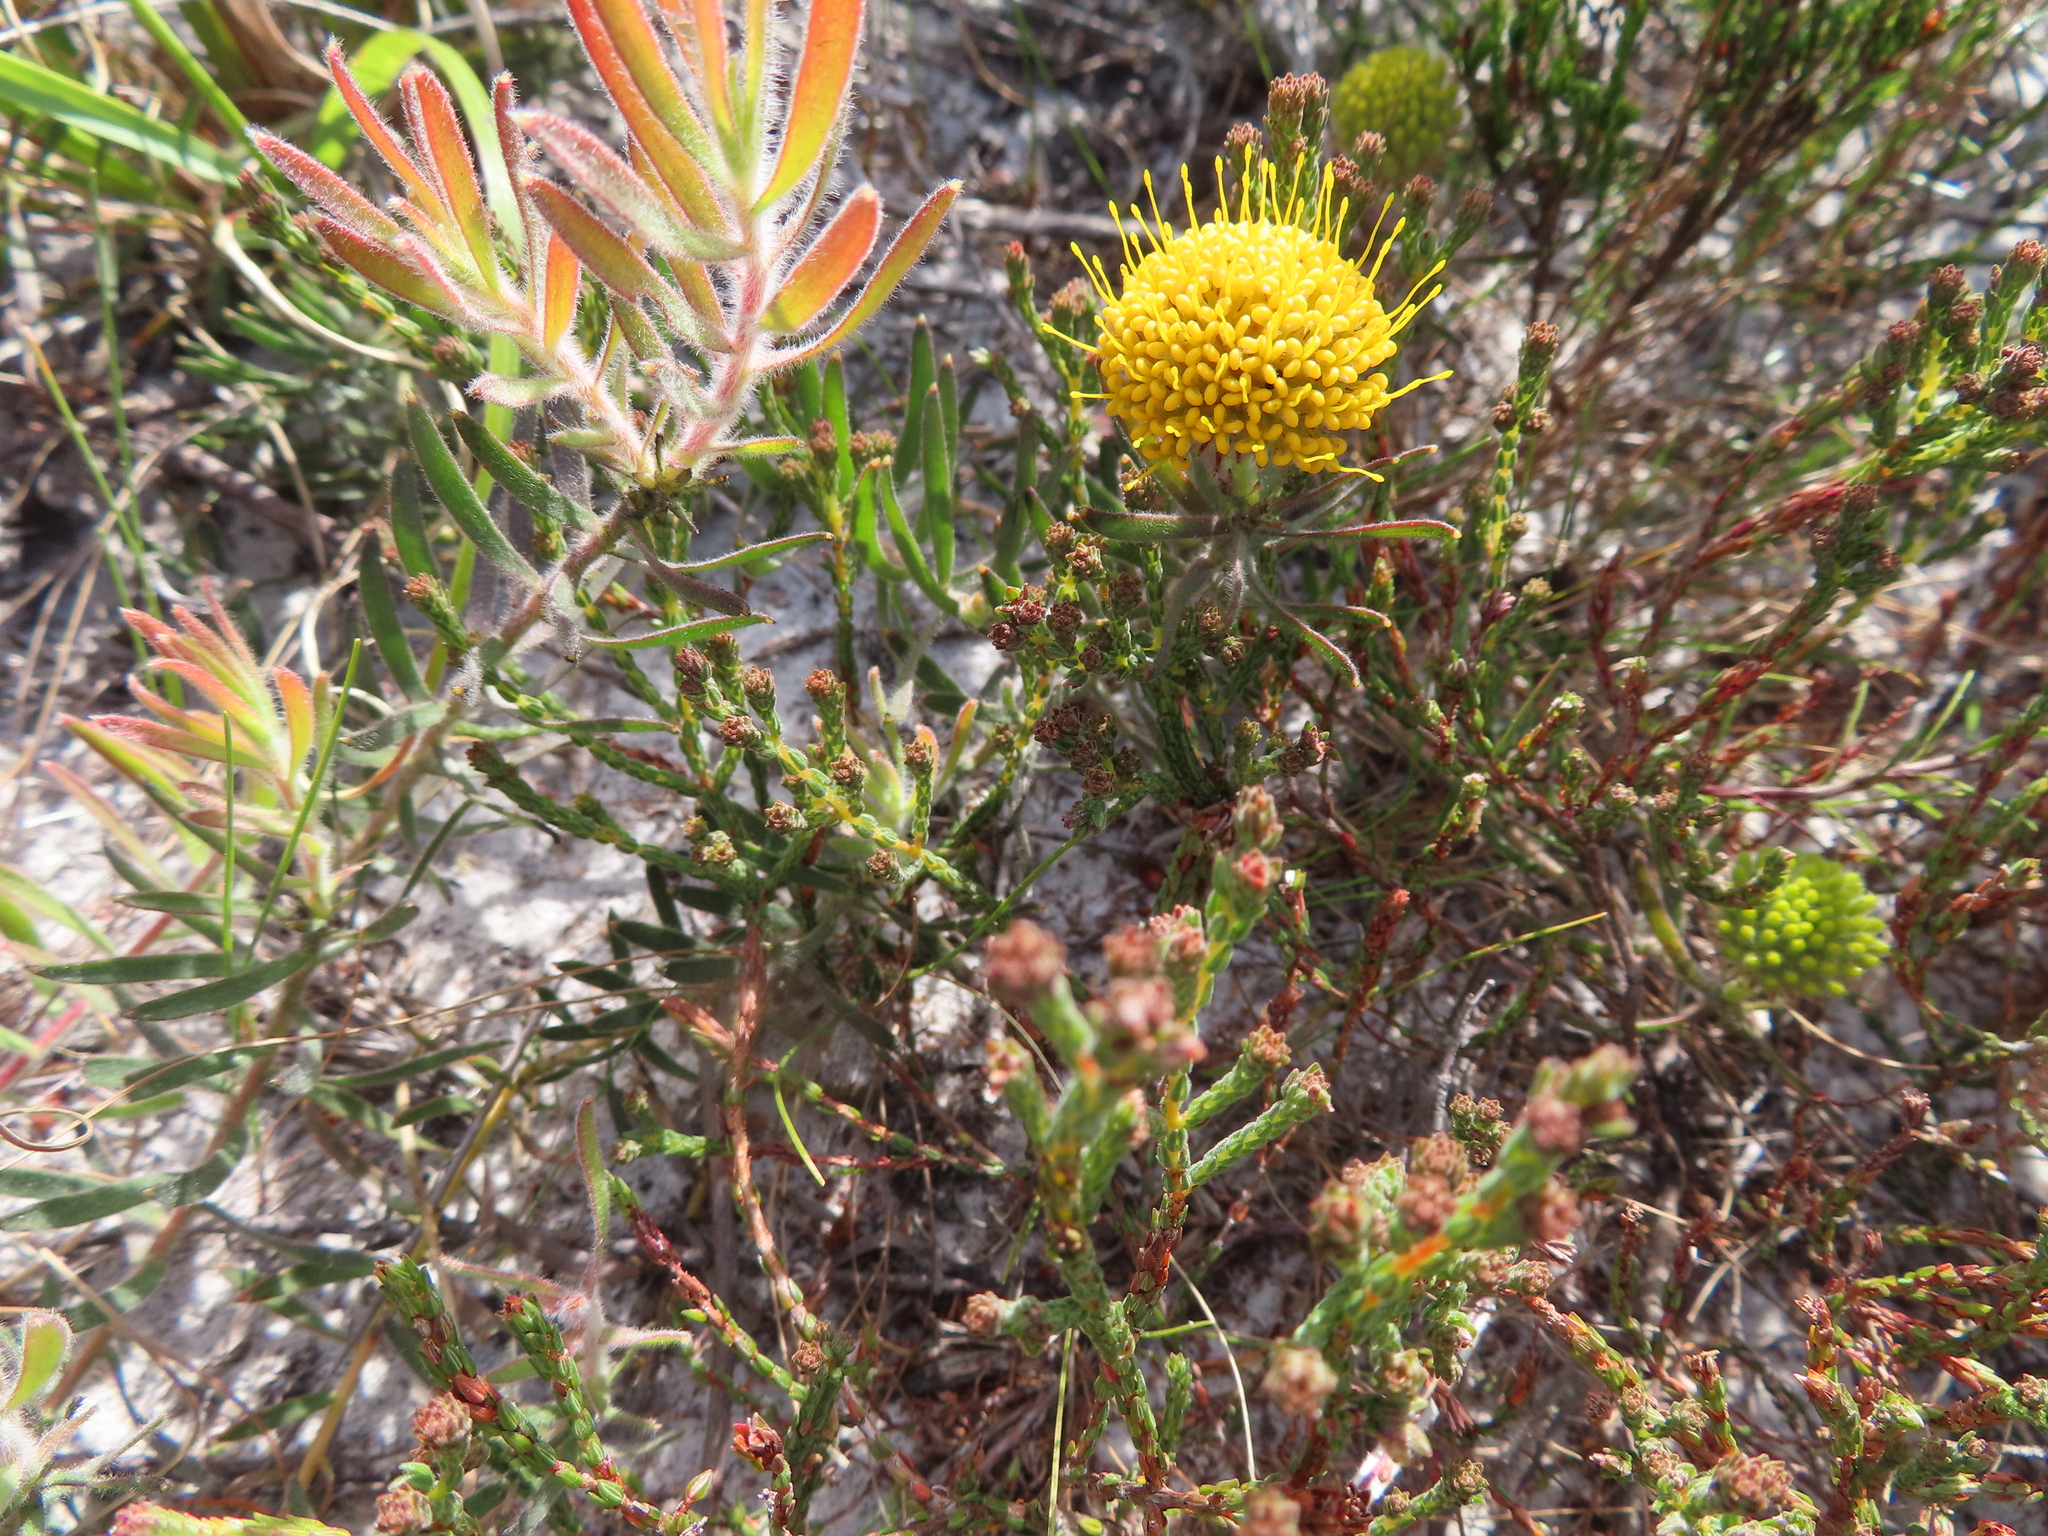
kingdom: Plantae
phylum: Tracheophyta
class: Magnoliopsida
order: Proteales
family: Proteaceae
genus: Leucospermum
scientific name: Leucospermum prostratum
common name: Yellow-trailing pincushion
